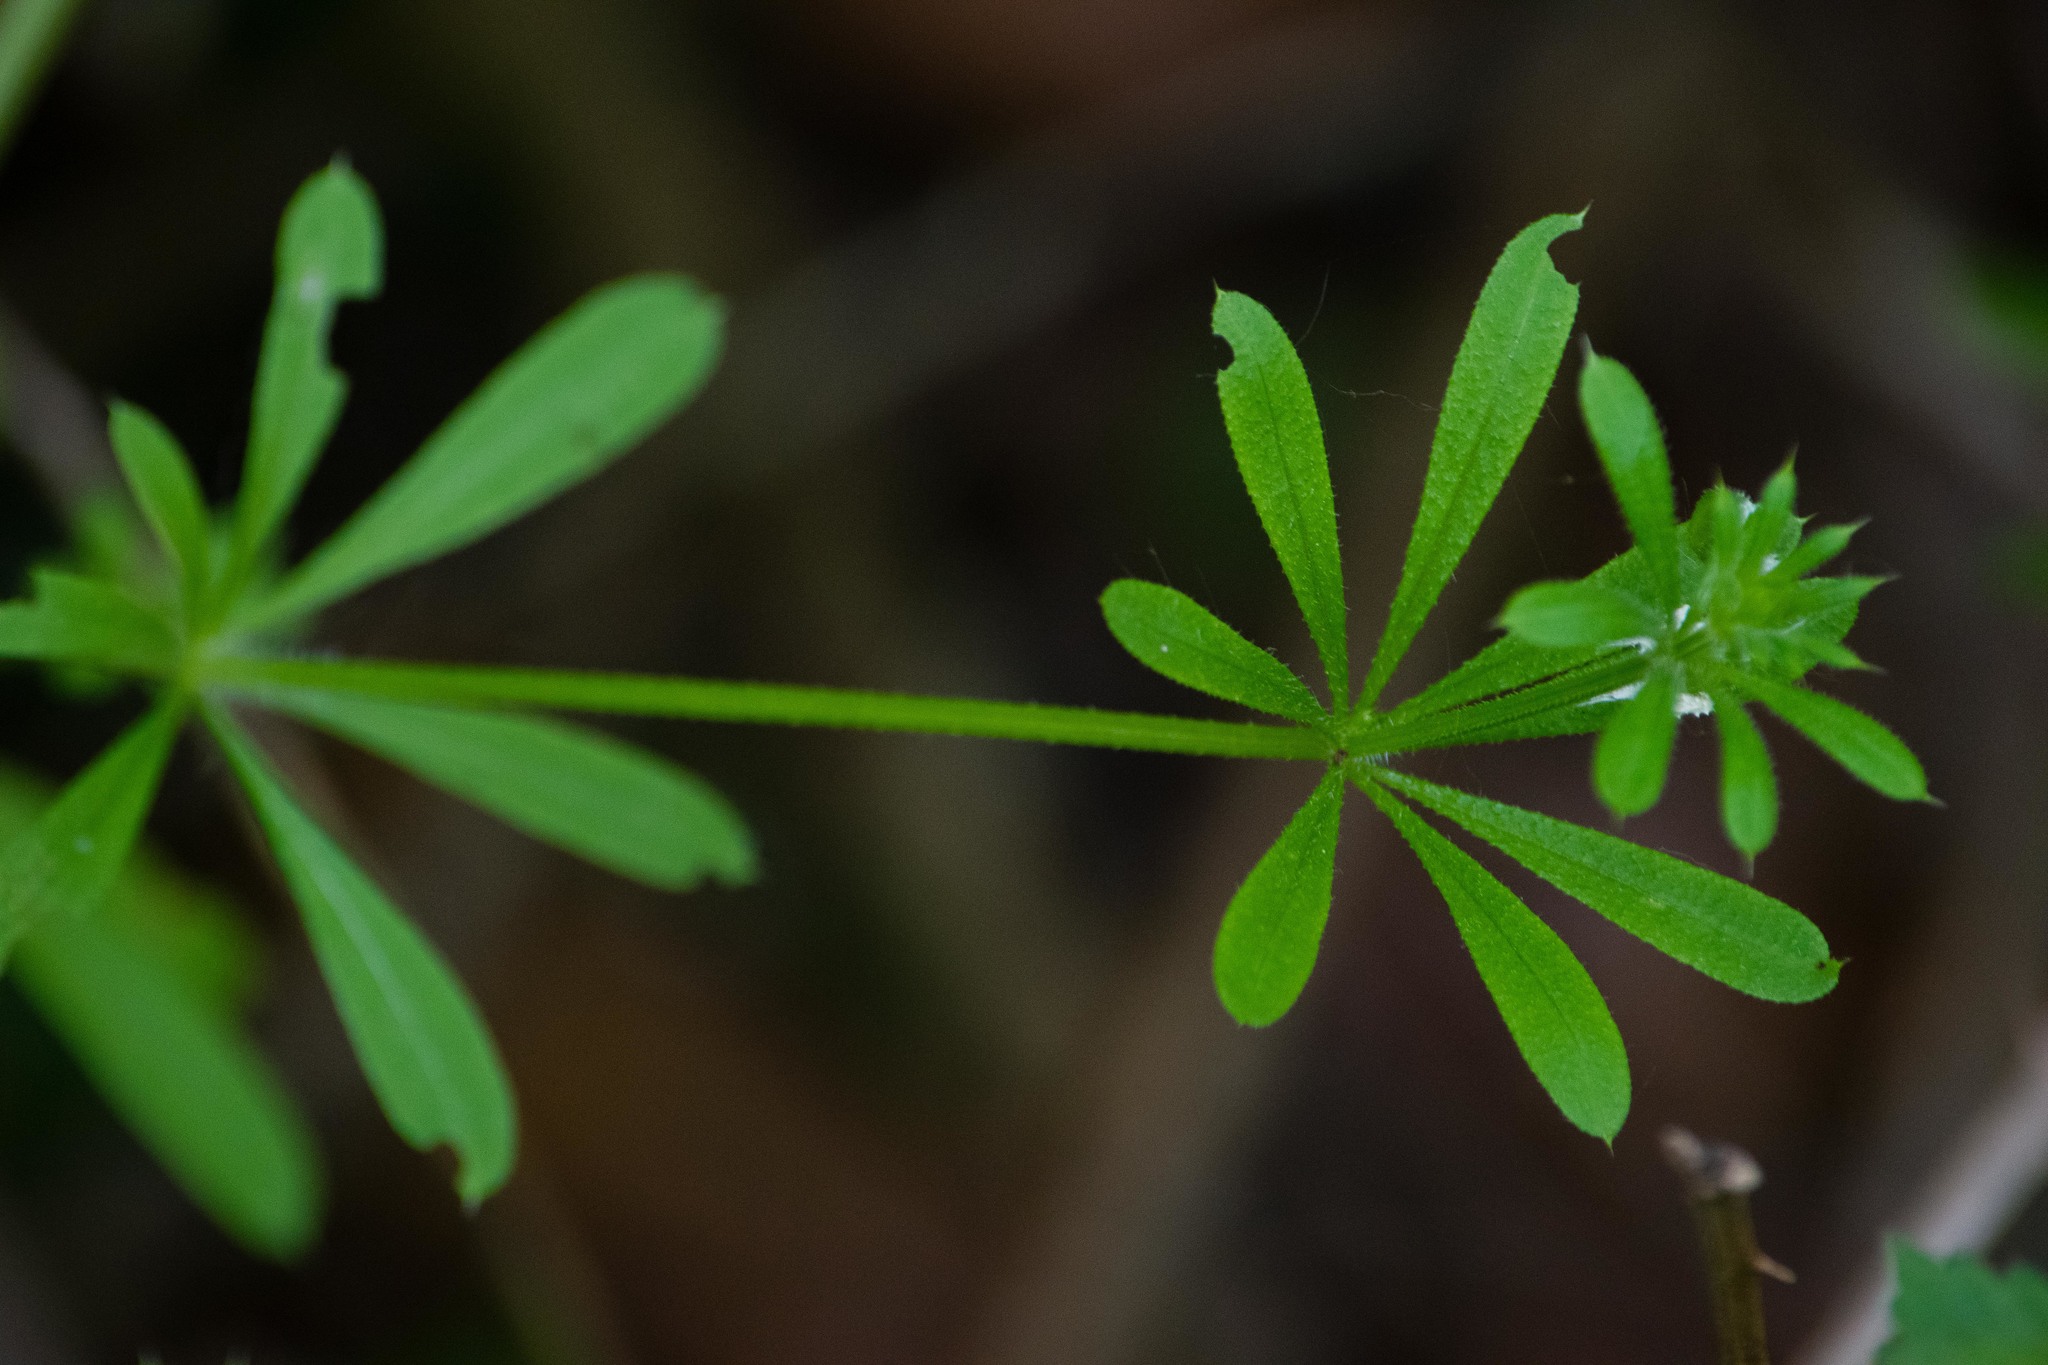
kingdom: Plantae
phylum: Tracheophyta
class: Magnoliopsida
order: Gentianales
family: Rubiaceae
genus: Galium
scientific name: Galium aparine
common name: Cleavers
